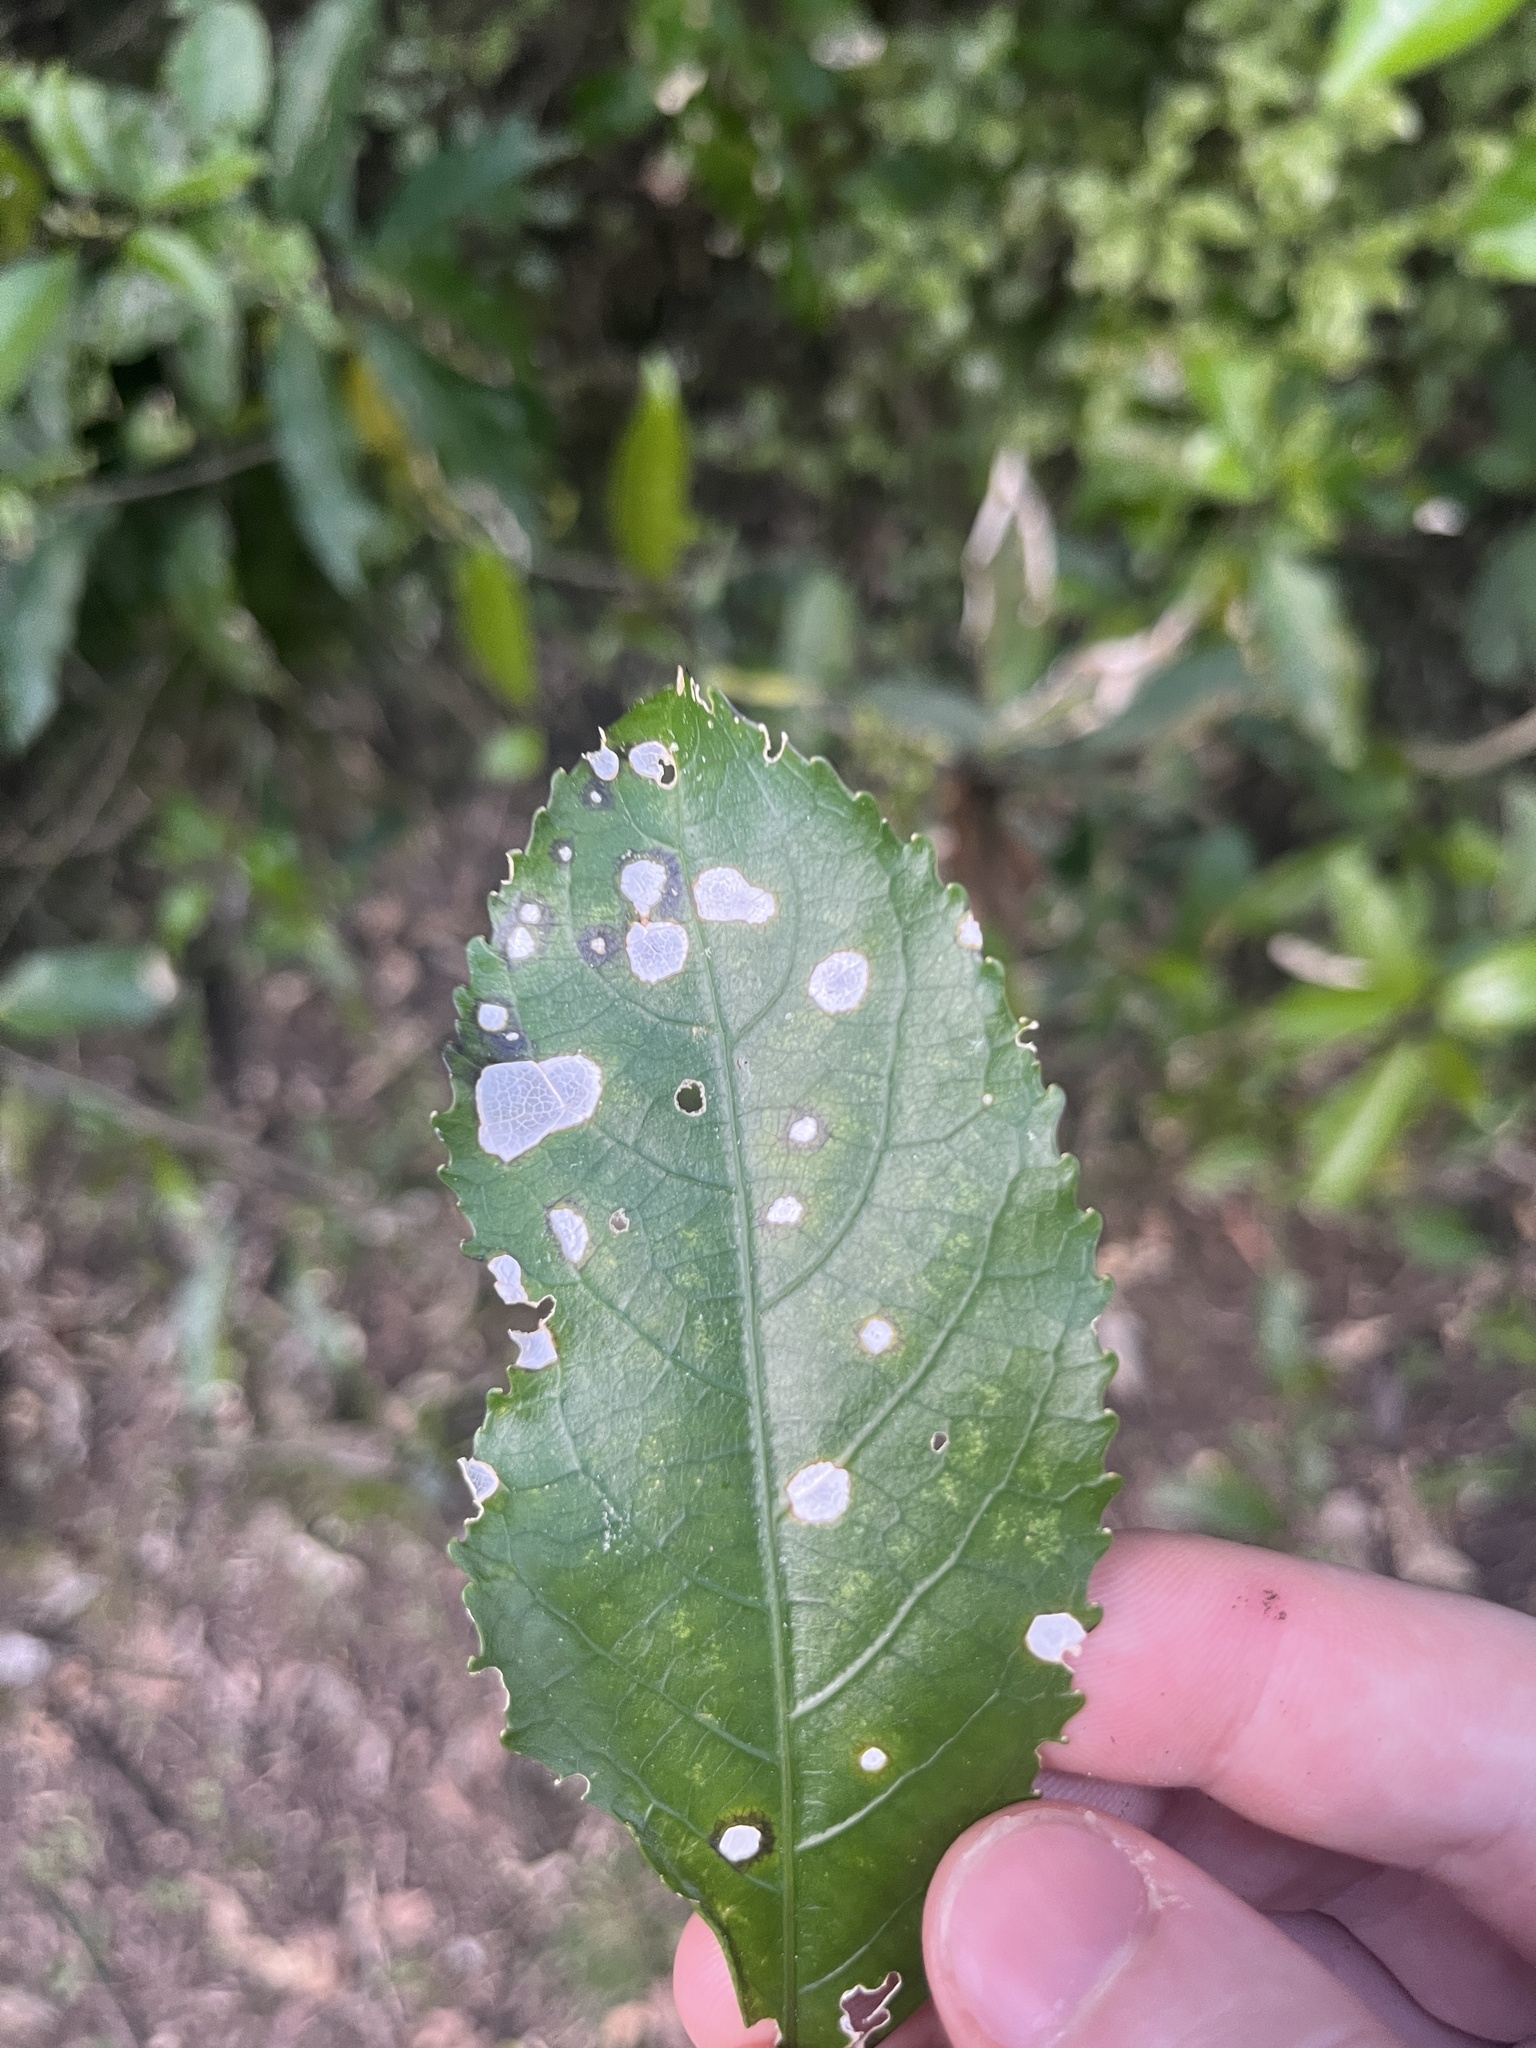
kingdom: Plantae
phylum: Chlorophyta
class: Ulvophyceae
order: Trentepohliales
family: Trentepohliaceae
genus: Cephaleuros
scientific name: Cephaleuros
